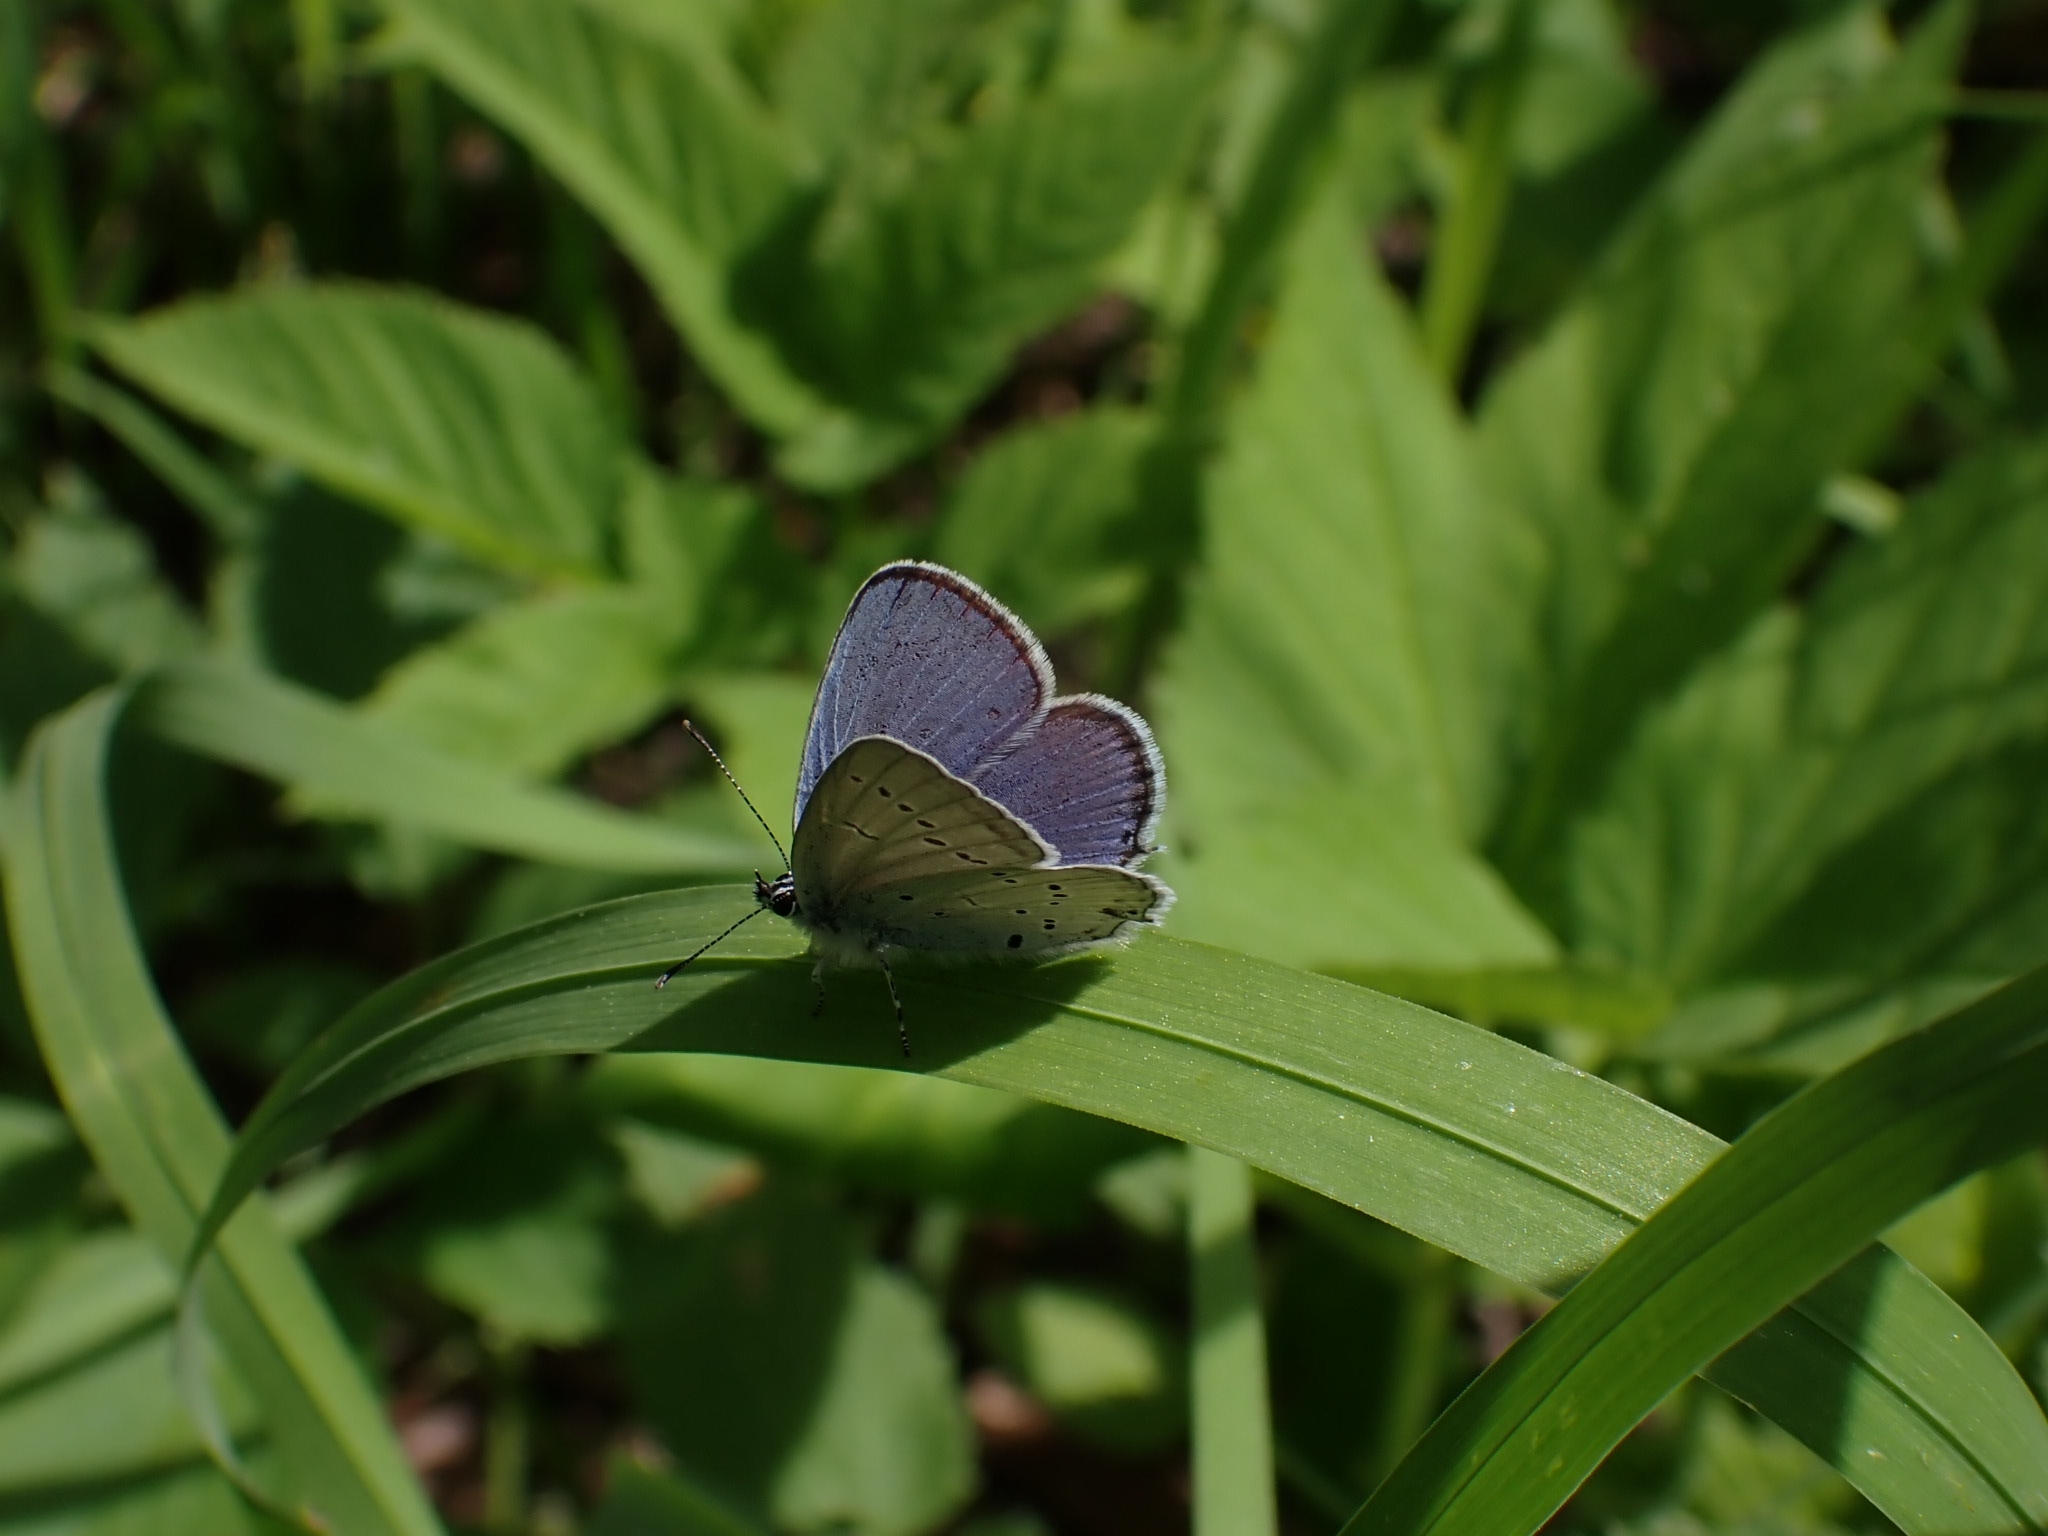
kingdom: Animalia
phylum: Arthropoda
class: Insecta
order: Lepidoptera
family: Lycaenidae
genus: Elkalyce
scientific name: Elkalyce alcetas
